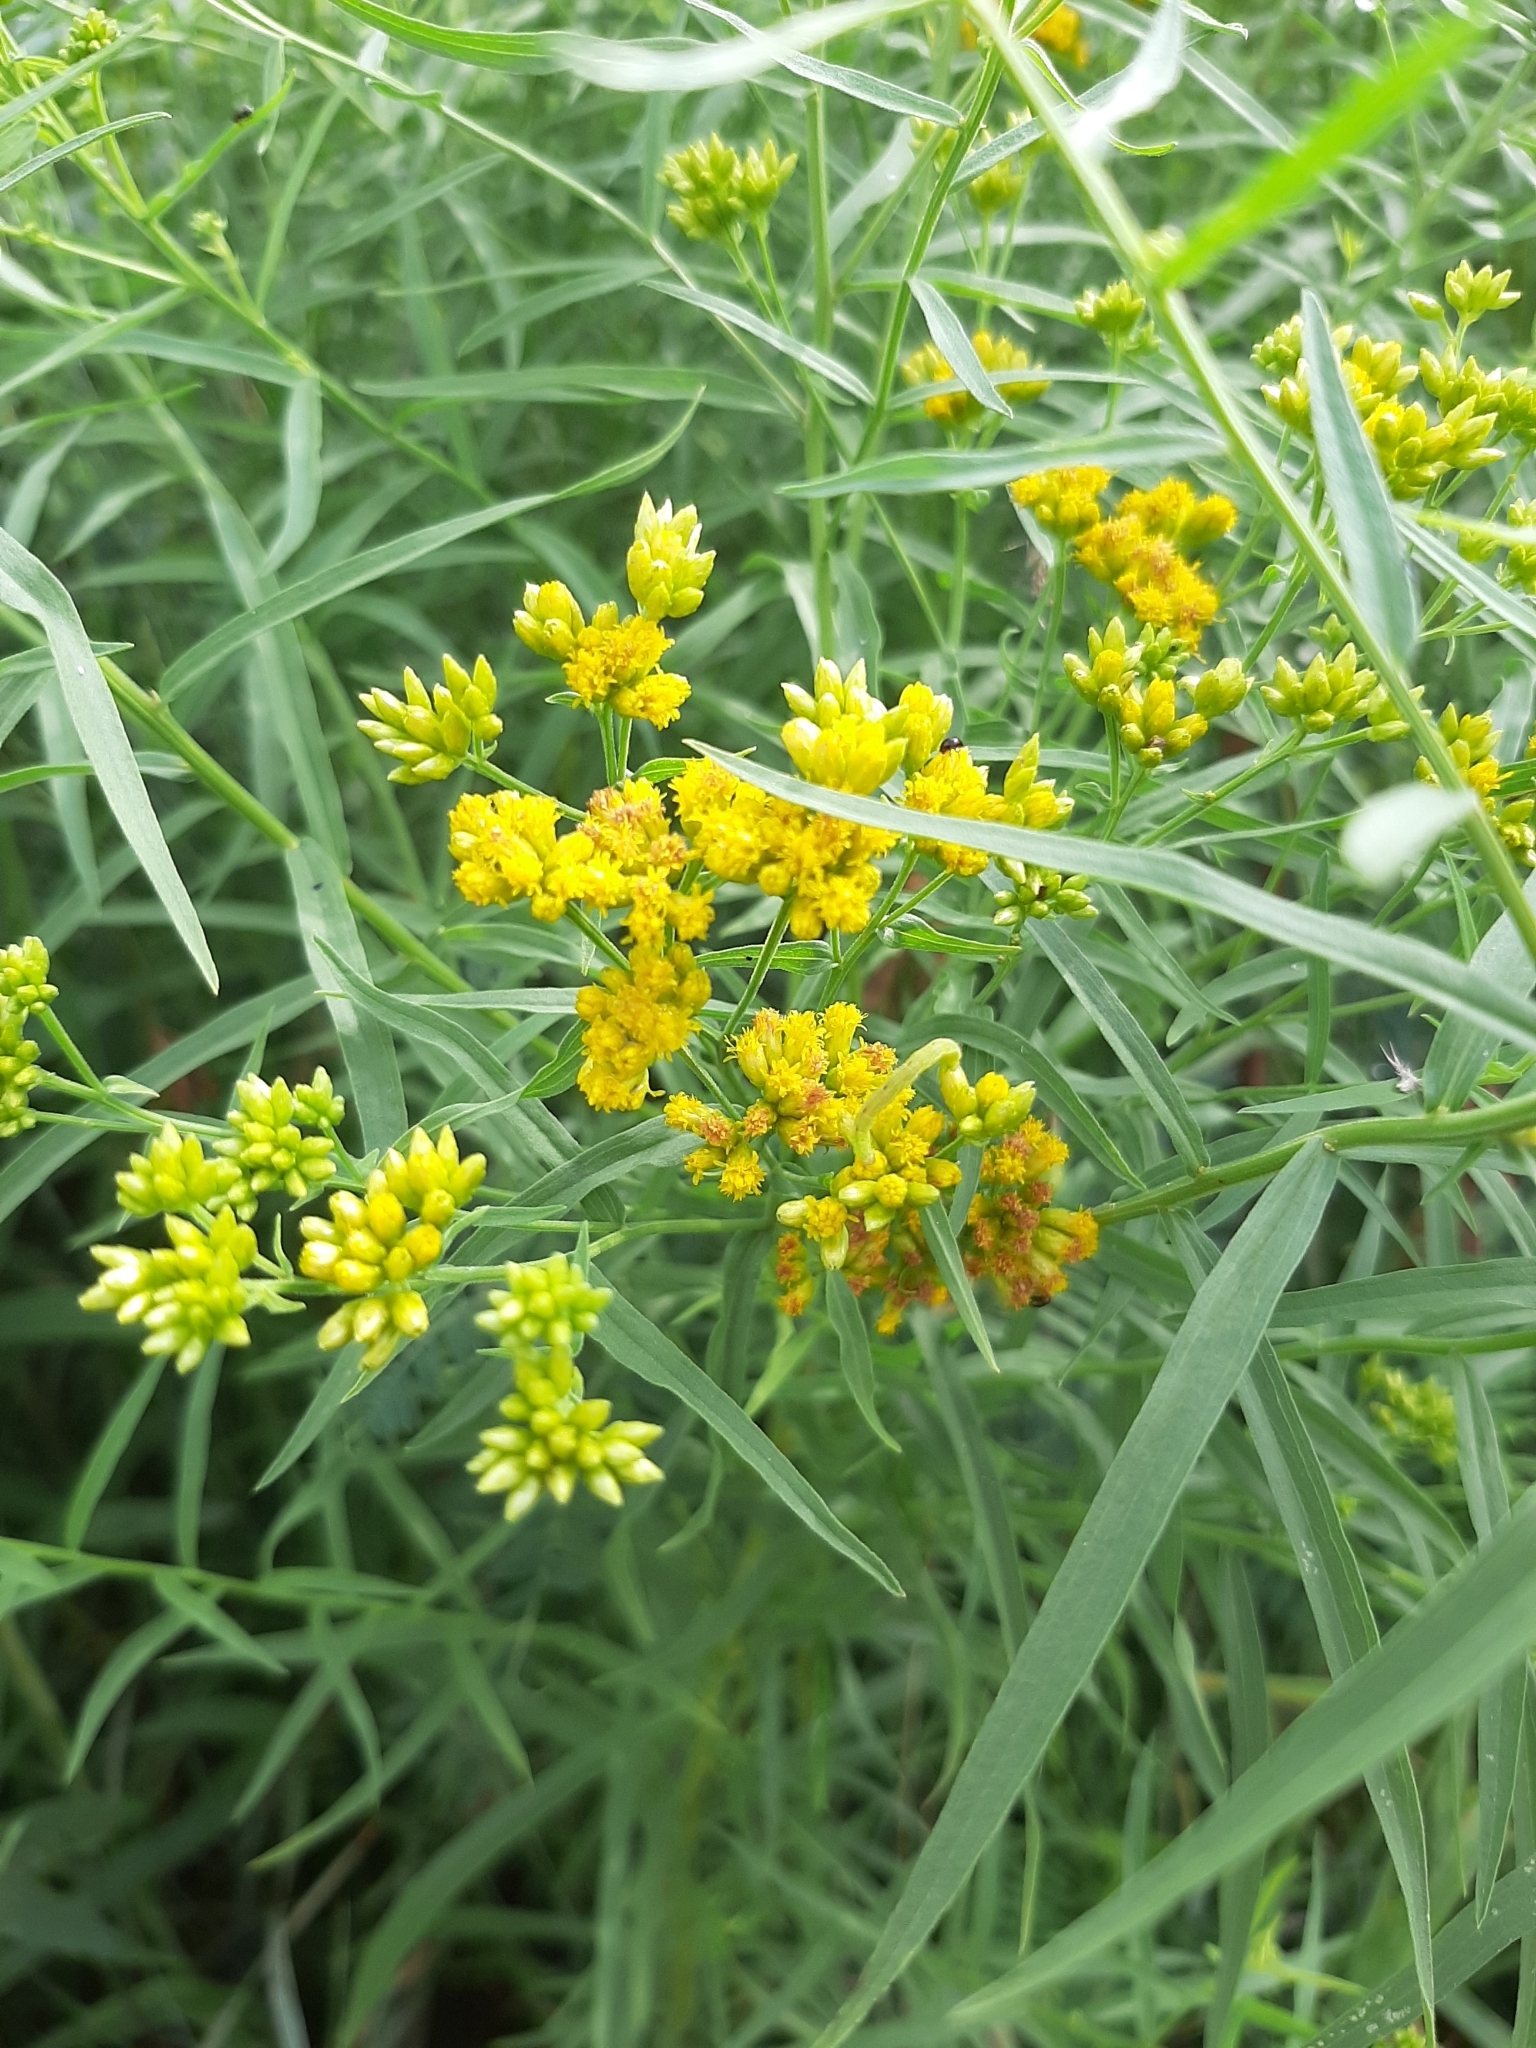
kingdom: Plantae
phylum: Tracheophyta
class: Magnoliopsida
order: Asterales
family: Asteraceae
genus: Euthamia
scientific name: Euthamia graminifolia
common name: Common goldentop
